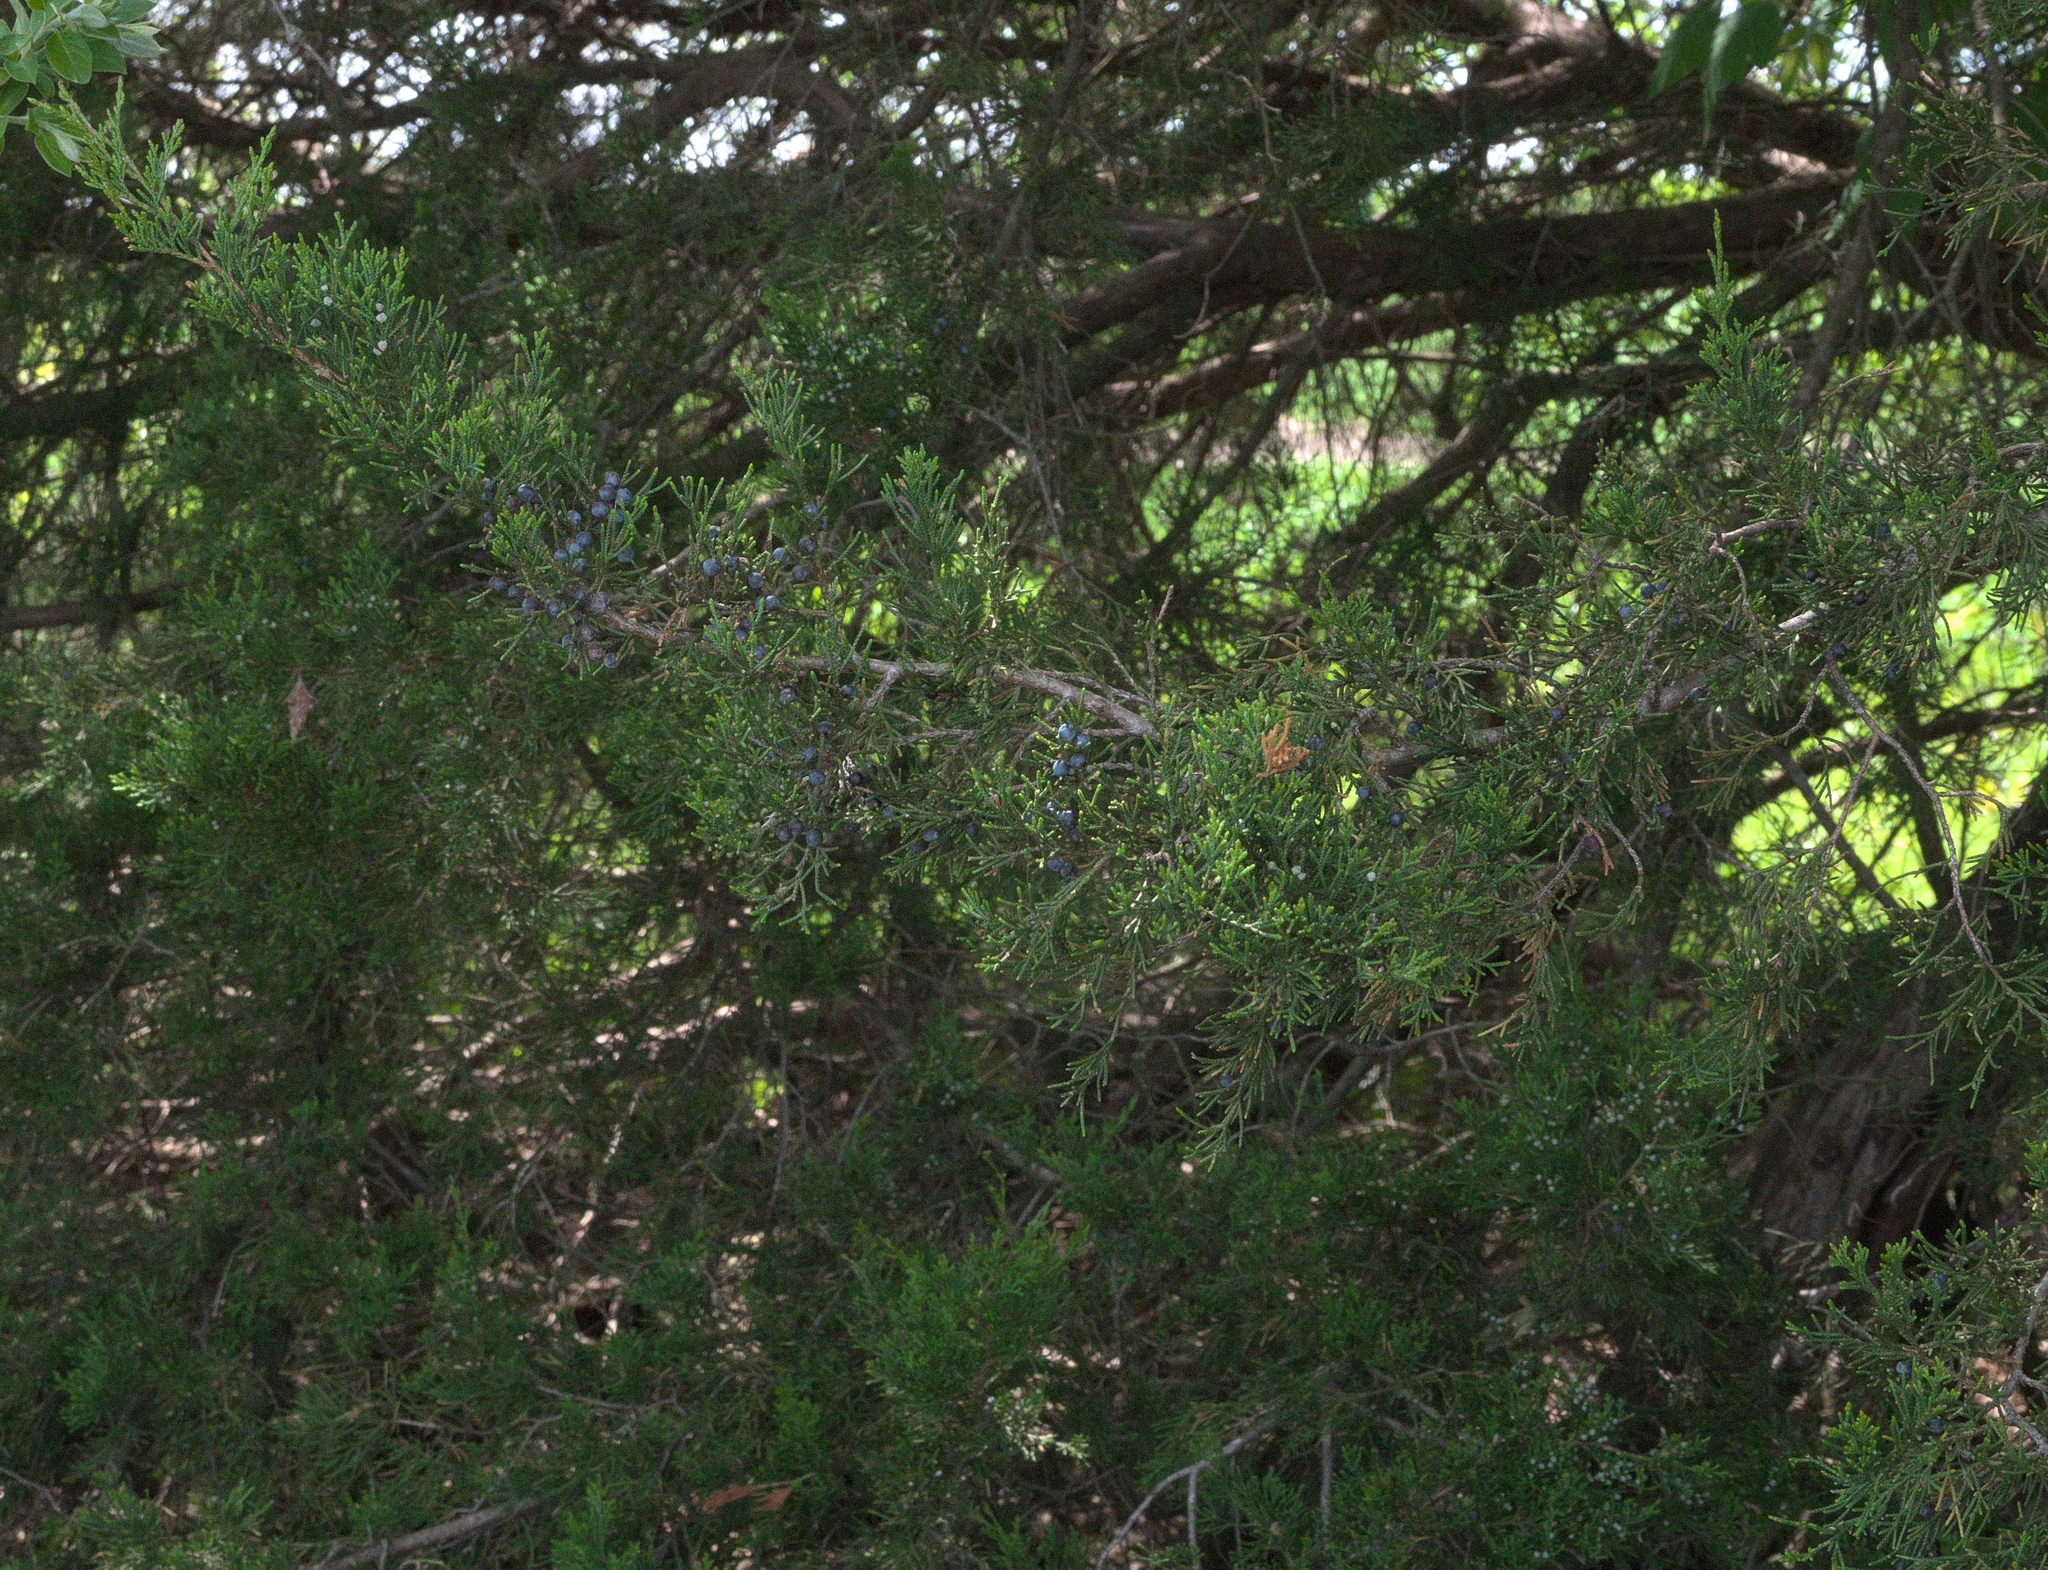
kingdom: Plantae
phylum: Tracheophyta
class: Pinopsida
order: Pinales
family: Cupressaceae
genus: Juniperus
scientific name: Juniperus virginiana
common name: Red juniper
